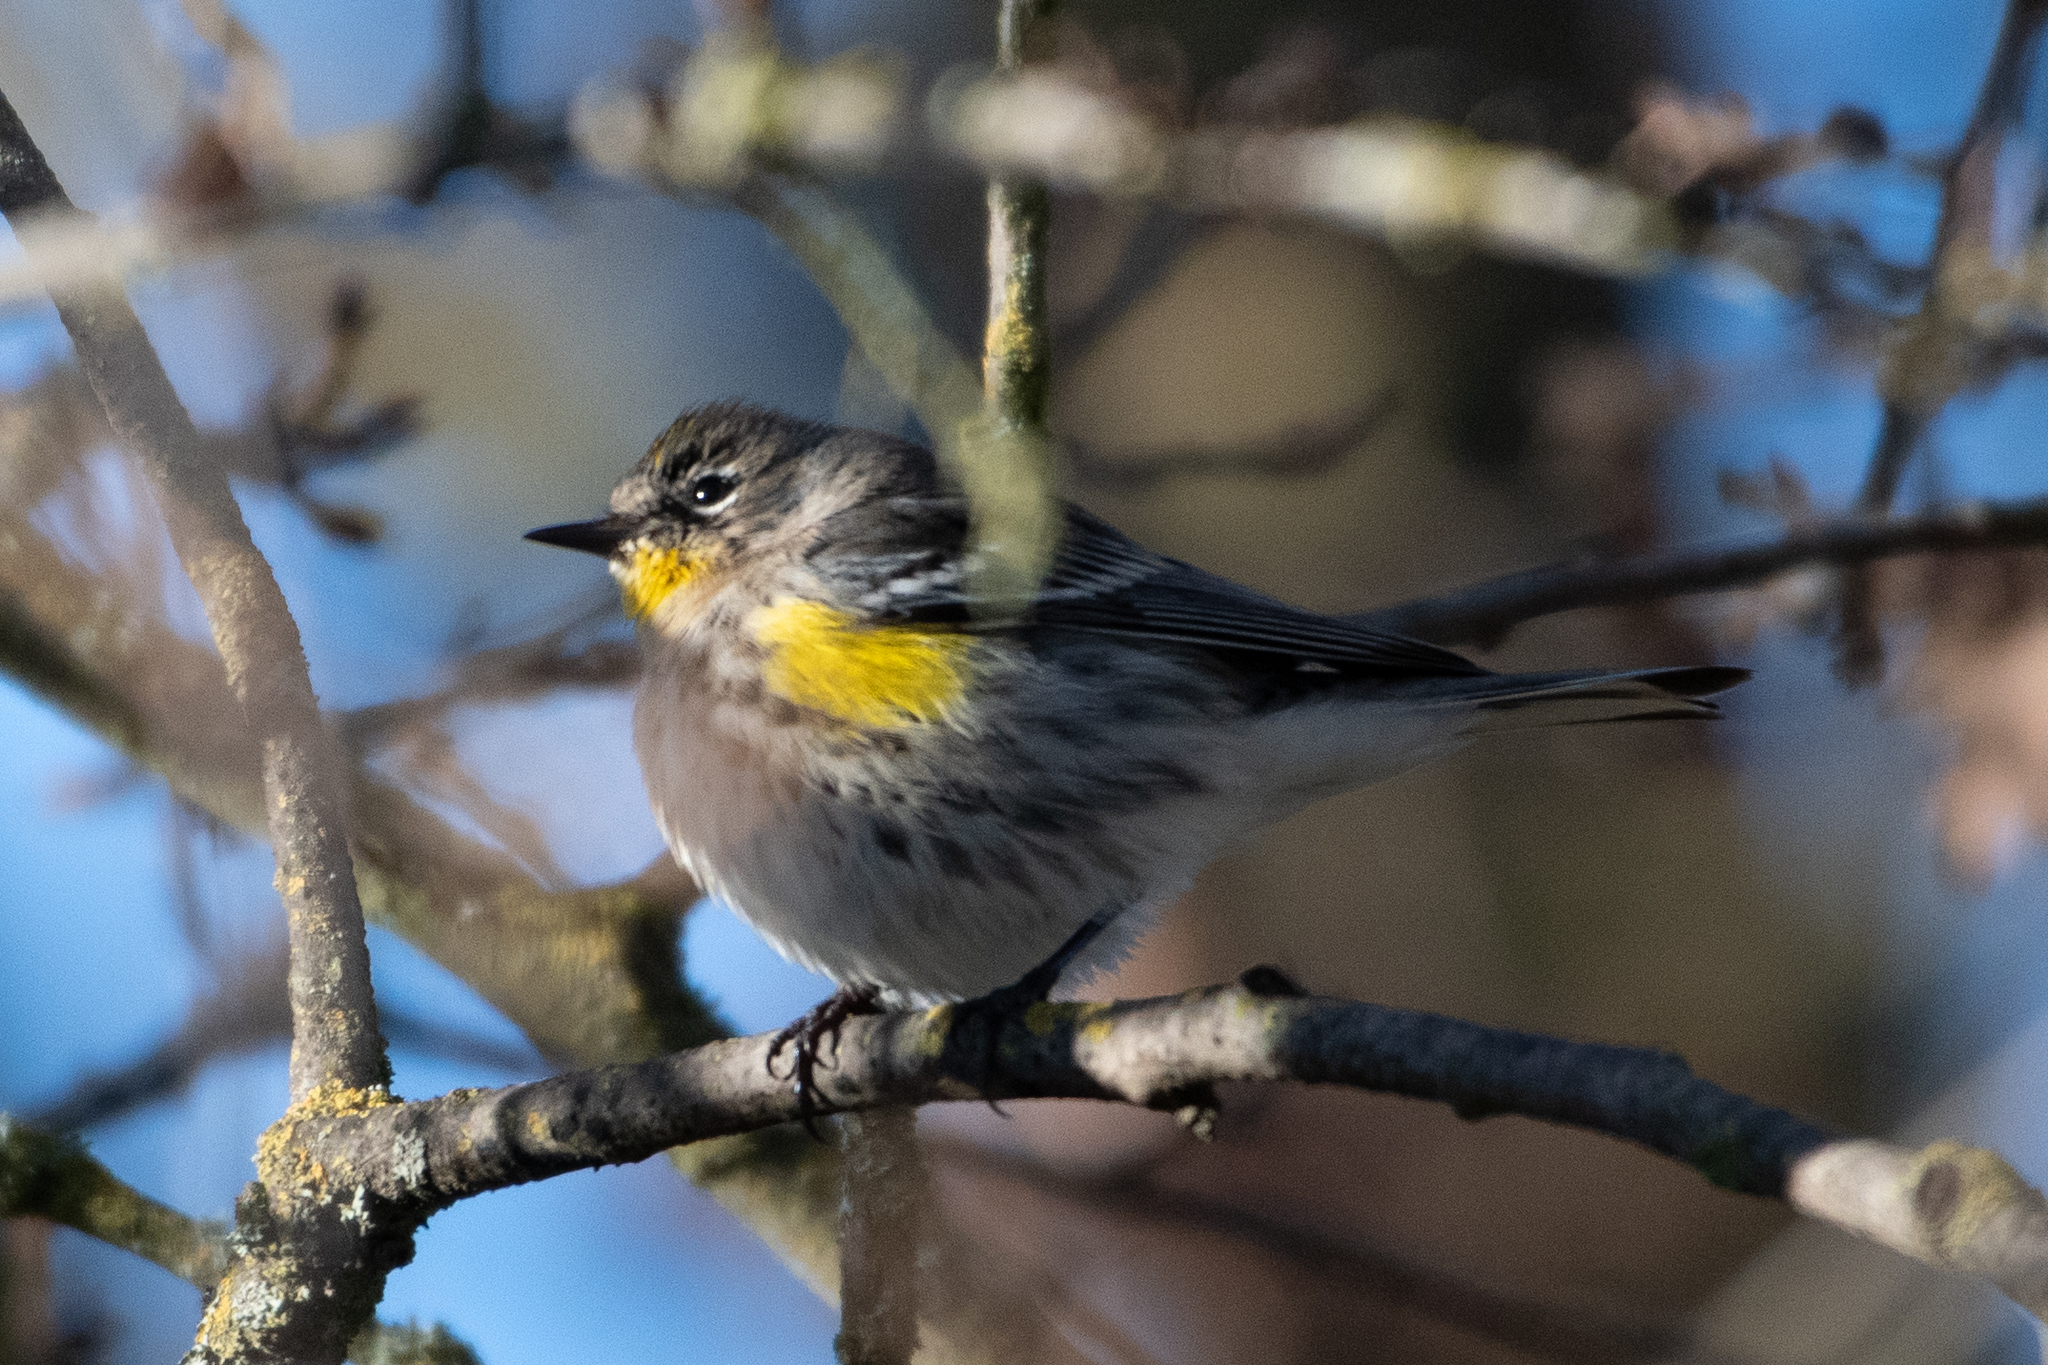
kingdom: Animalia
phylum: Chordata
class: Aves
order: Passeriformes
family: Parulidae
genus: Setophaga
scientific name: Setophaga coronata
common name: Myrtle warbler
